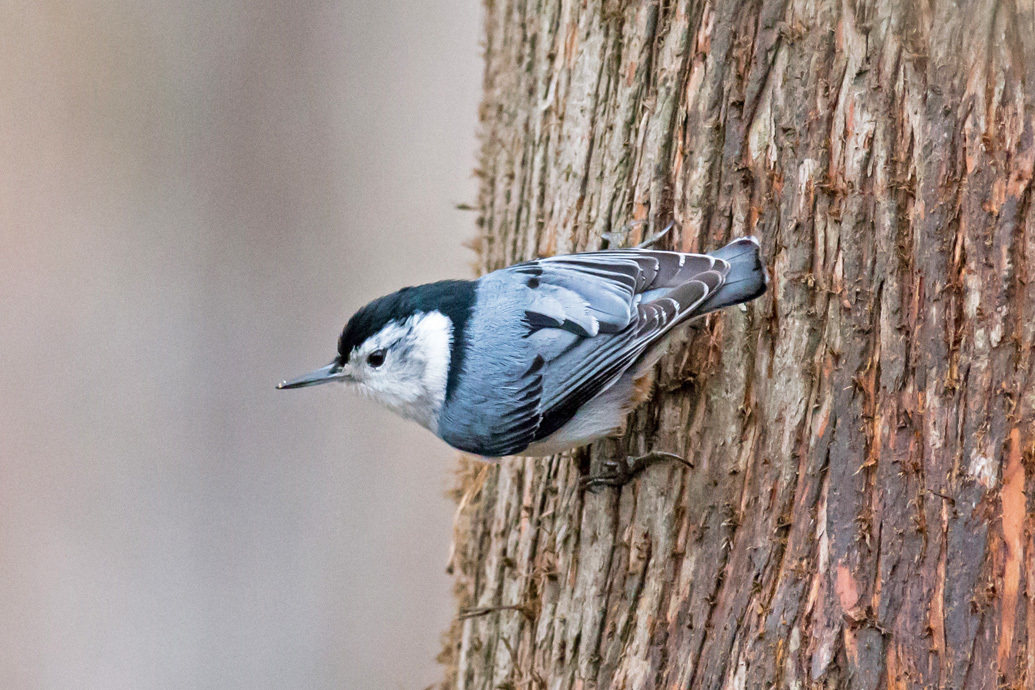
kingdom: Animalia
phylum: Chordata
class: Aves
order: Passeriformes
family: Sittidae
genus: Sitta
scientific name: Sitta carolinensis
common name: White-breasted nuthatch
